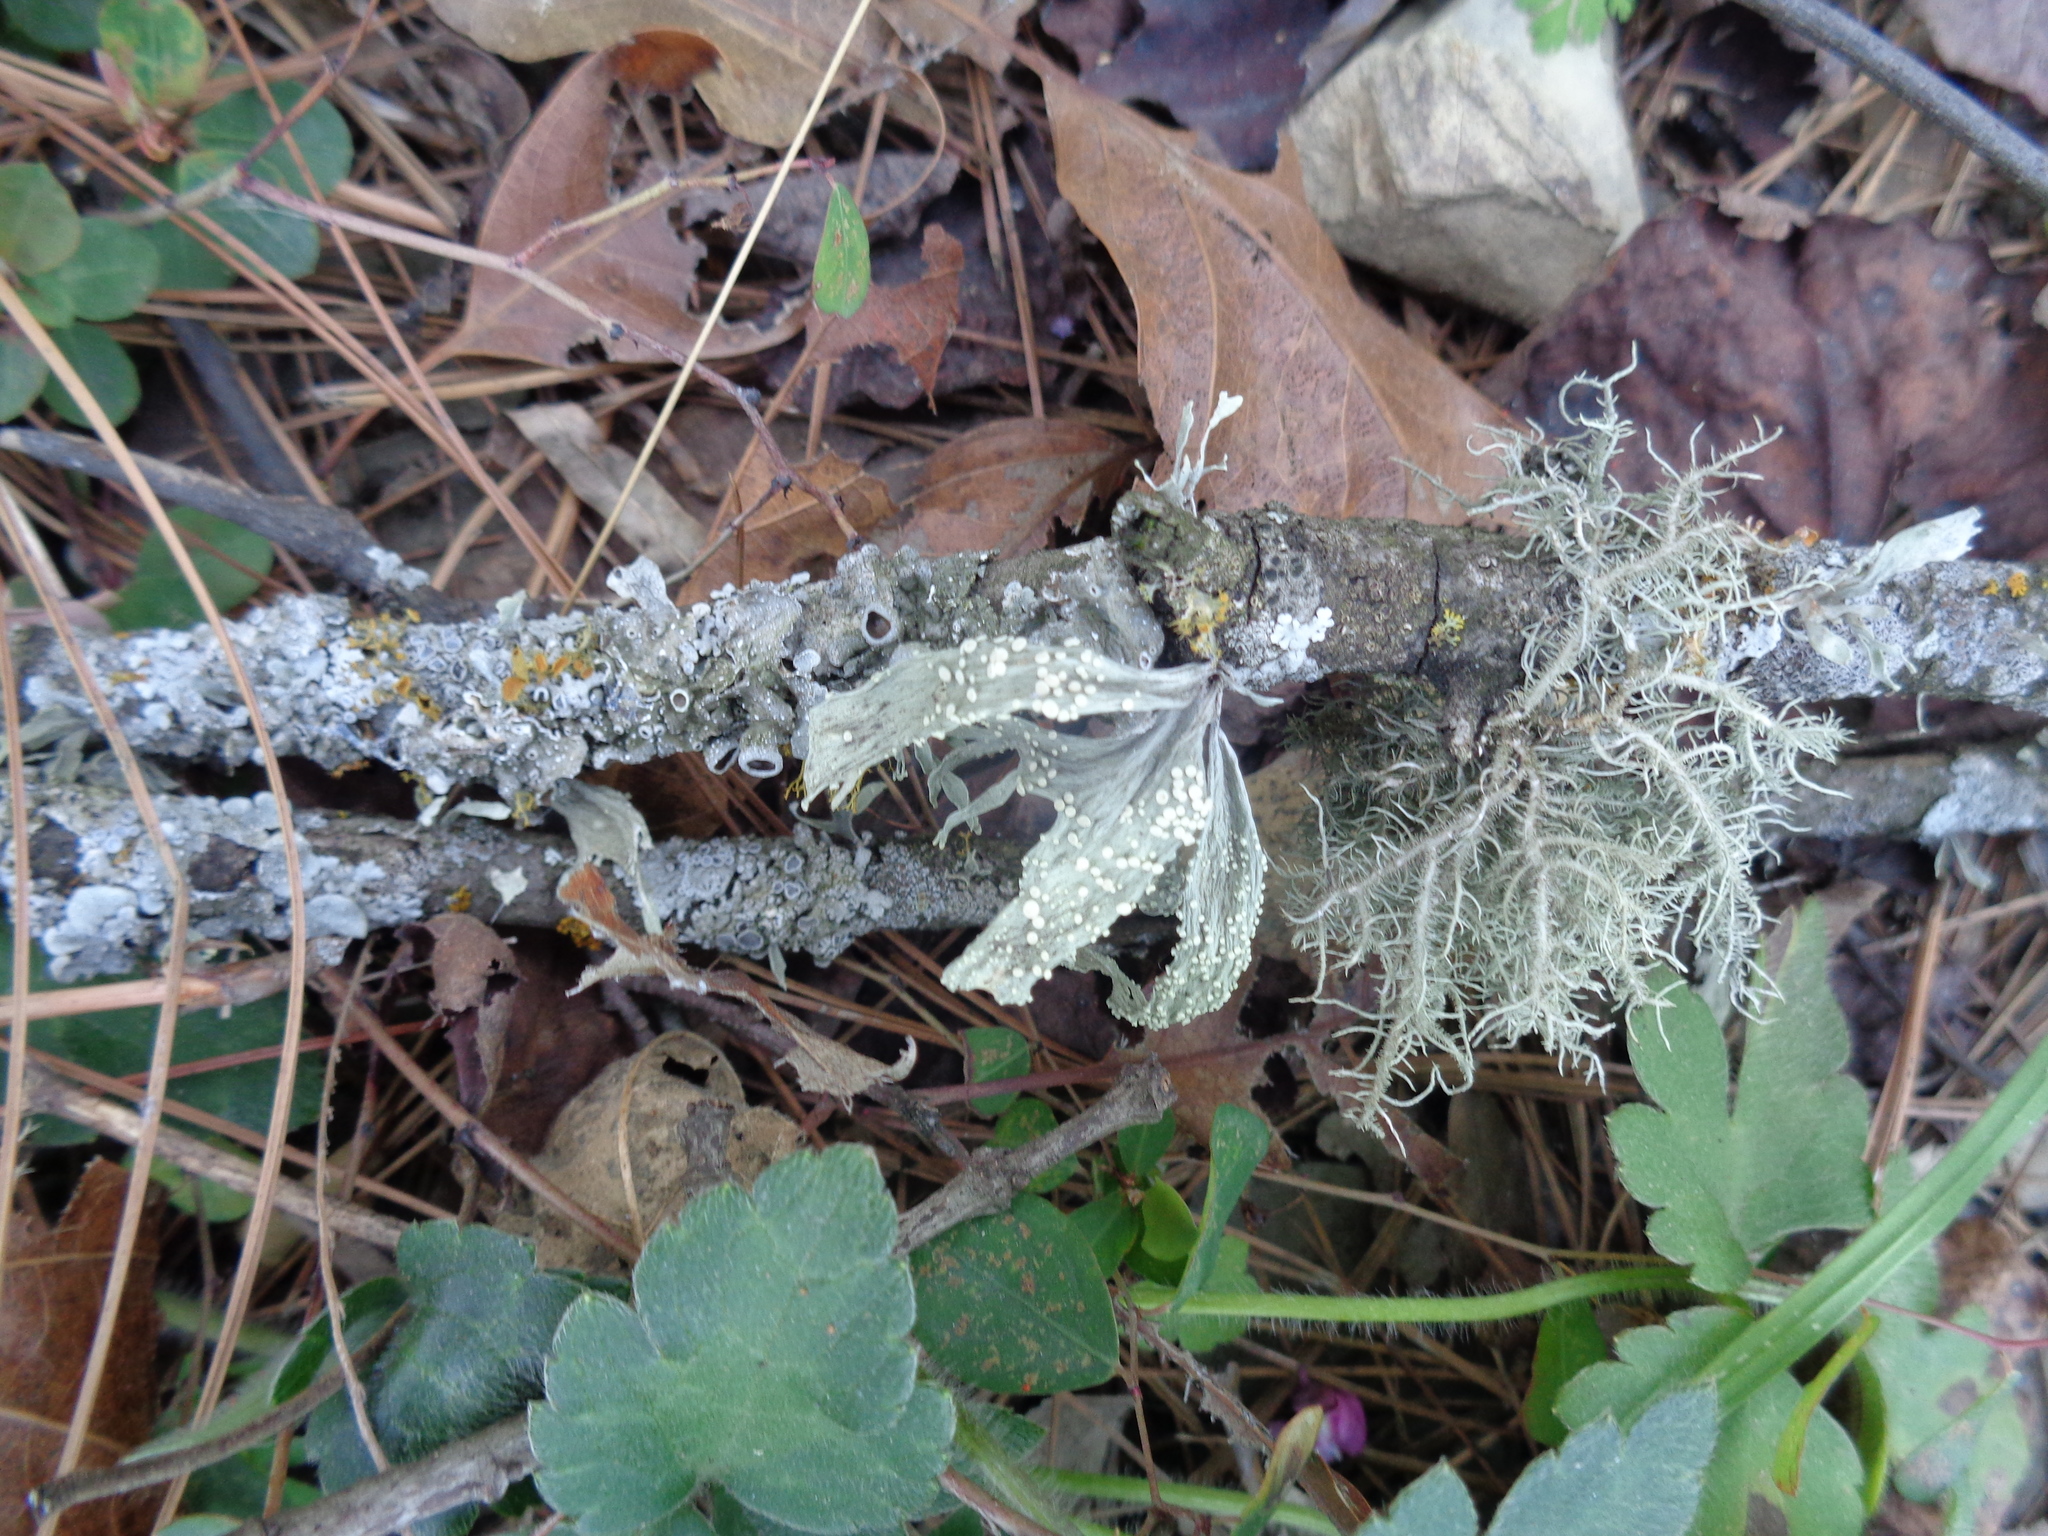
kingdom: Fungi
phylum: Ascomycota
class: Lecanoromycetes
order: Lecanorales
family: Ramalinaceae
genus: Ramalina
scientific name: Ramalina celastri
